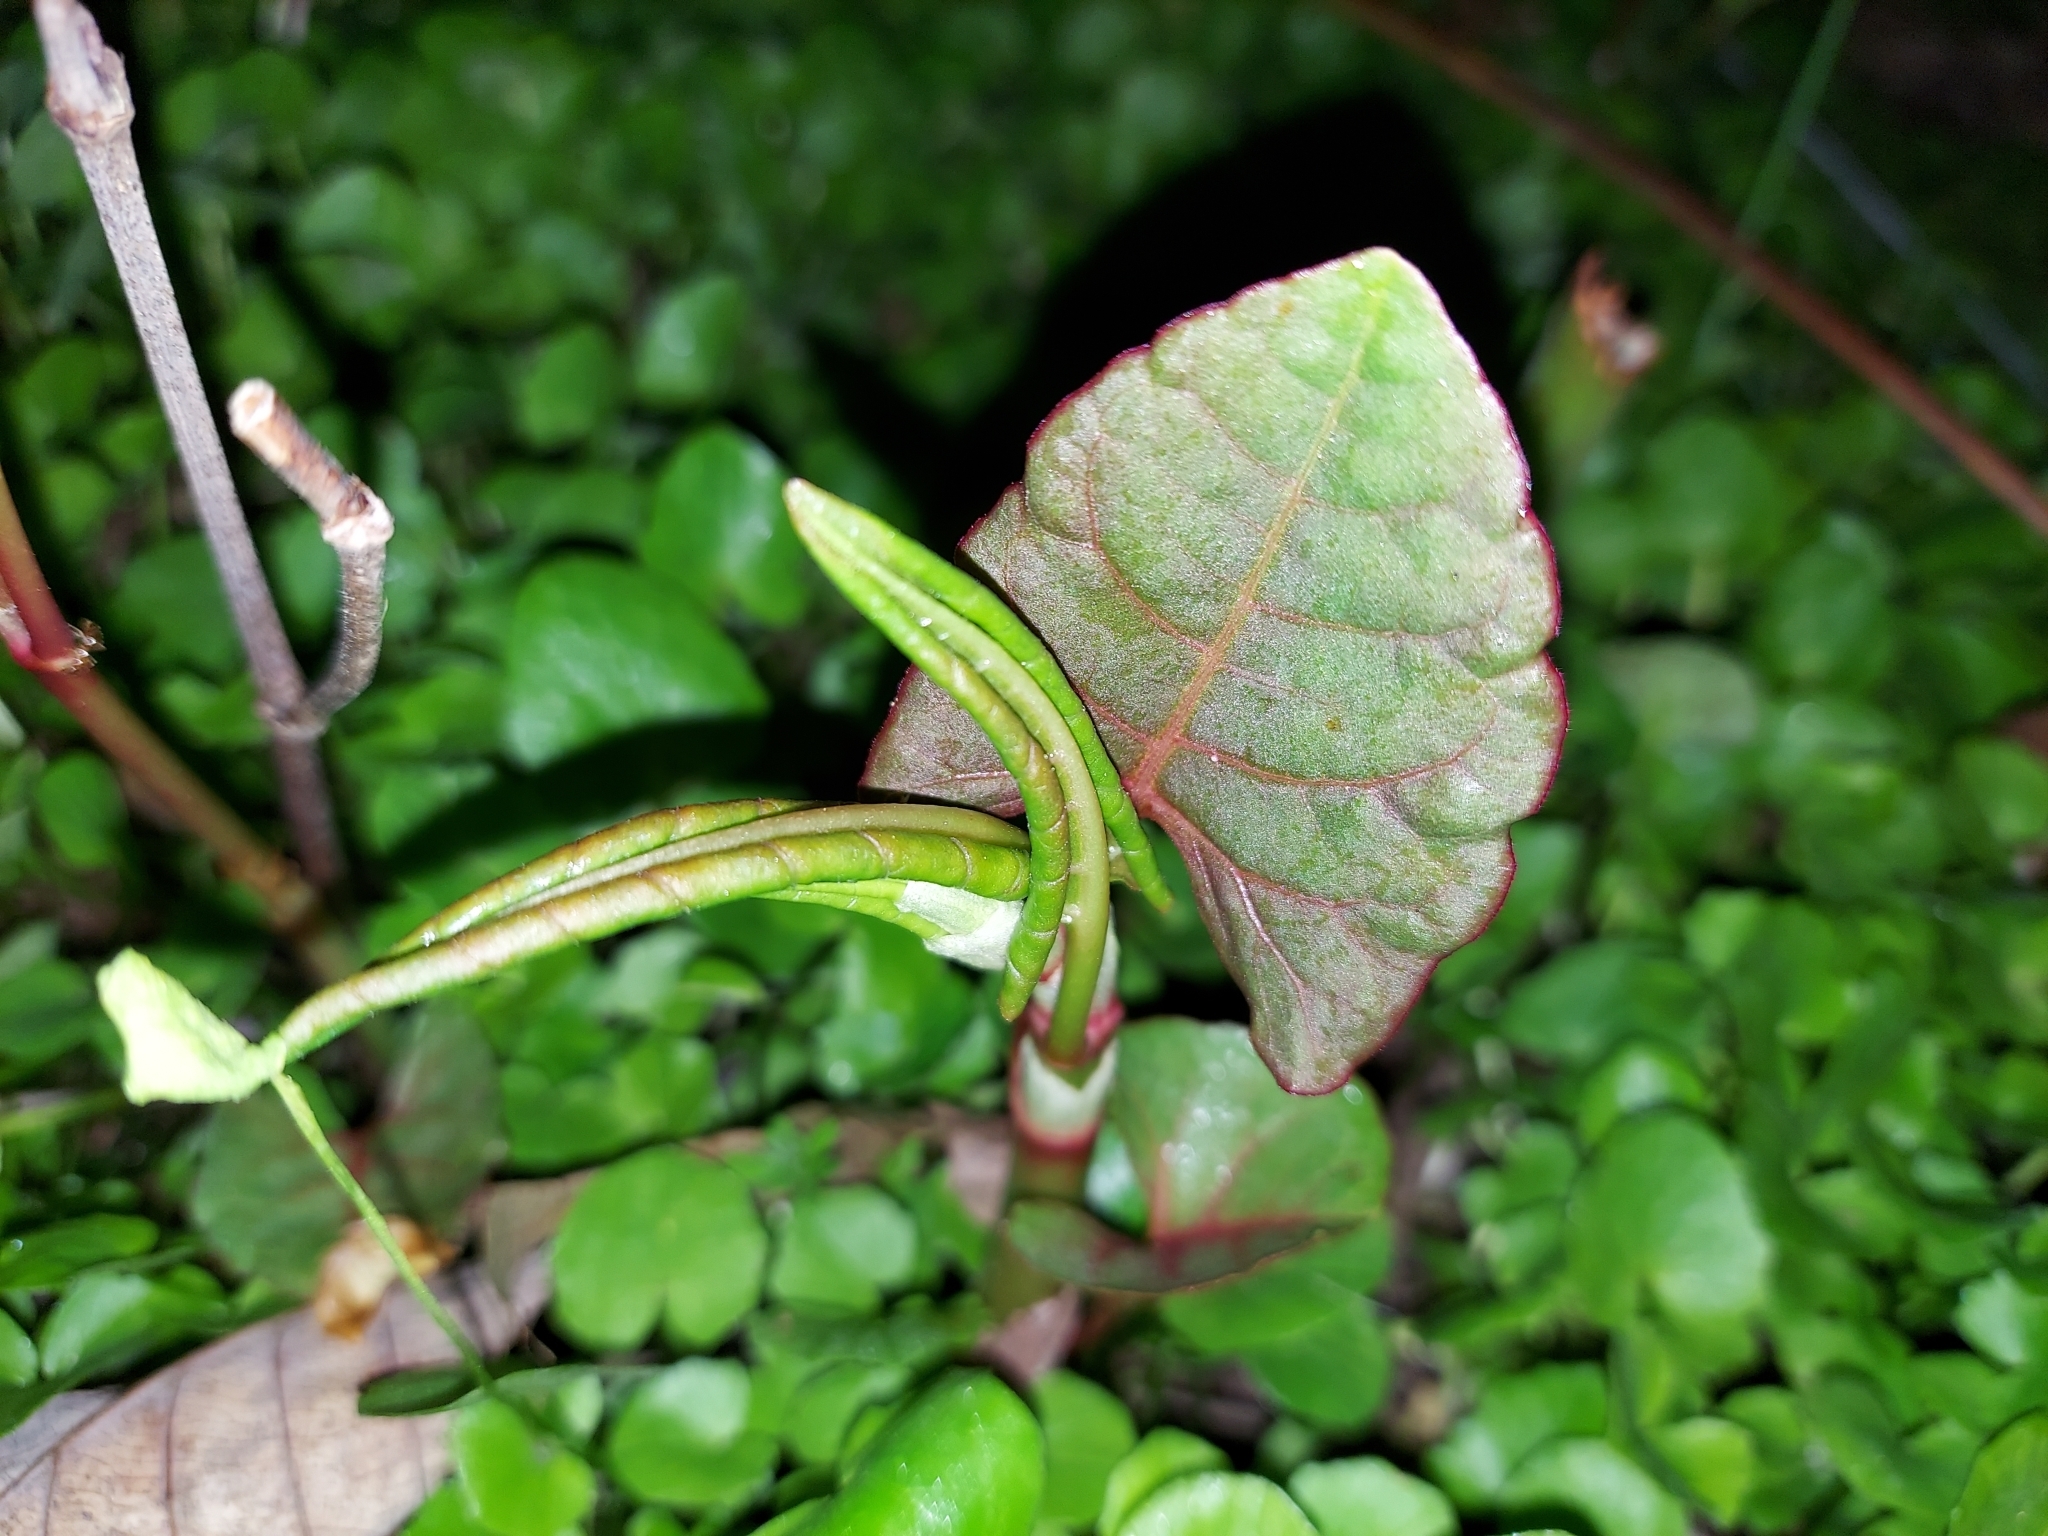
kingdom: Plantae
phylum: Tracheophyta
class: Magnoliopsida
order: Caryophyllales
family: Polygonaceae
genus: Reynoutria
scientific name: Reynoutria japonica
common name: Japanese knotweed
